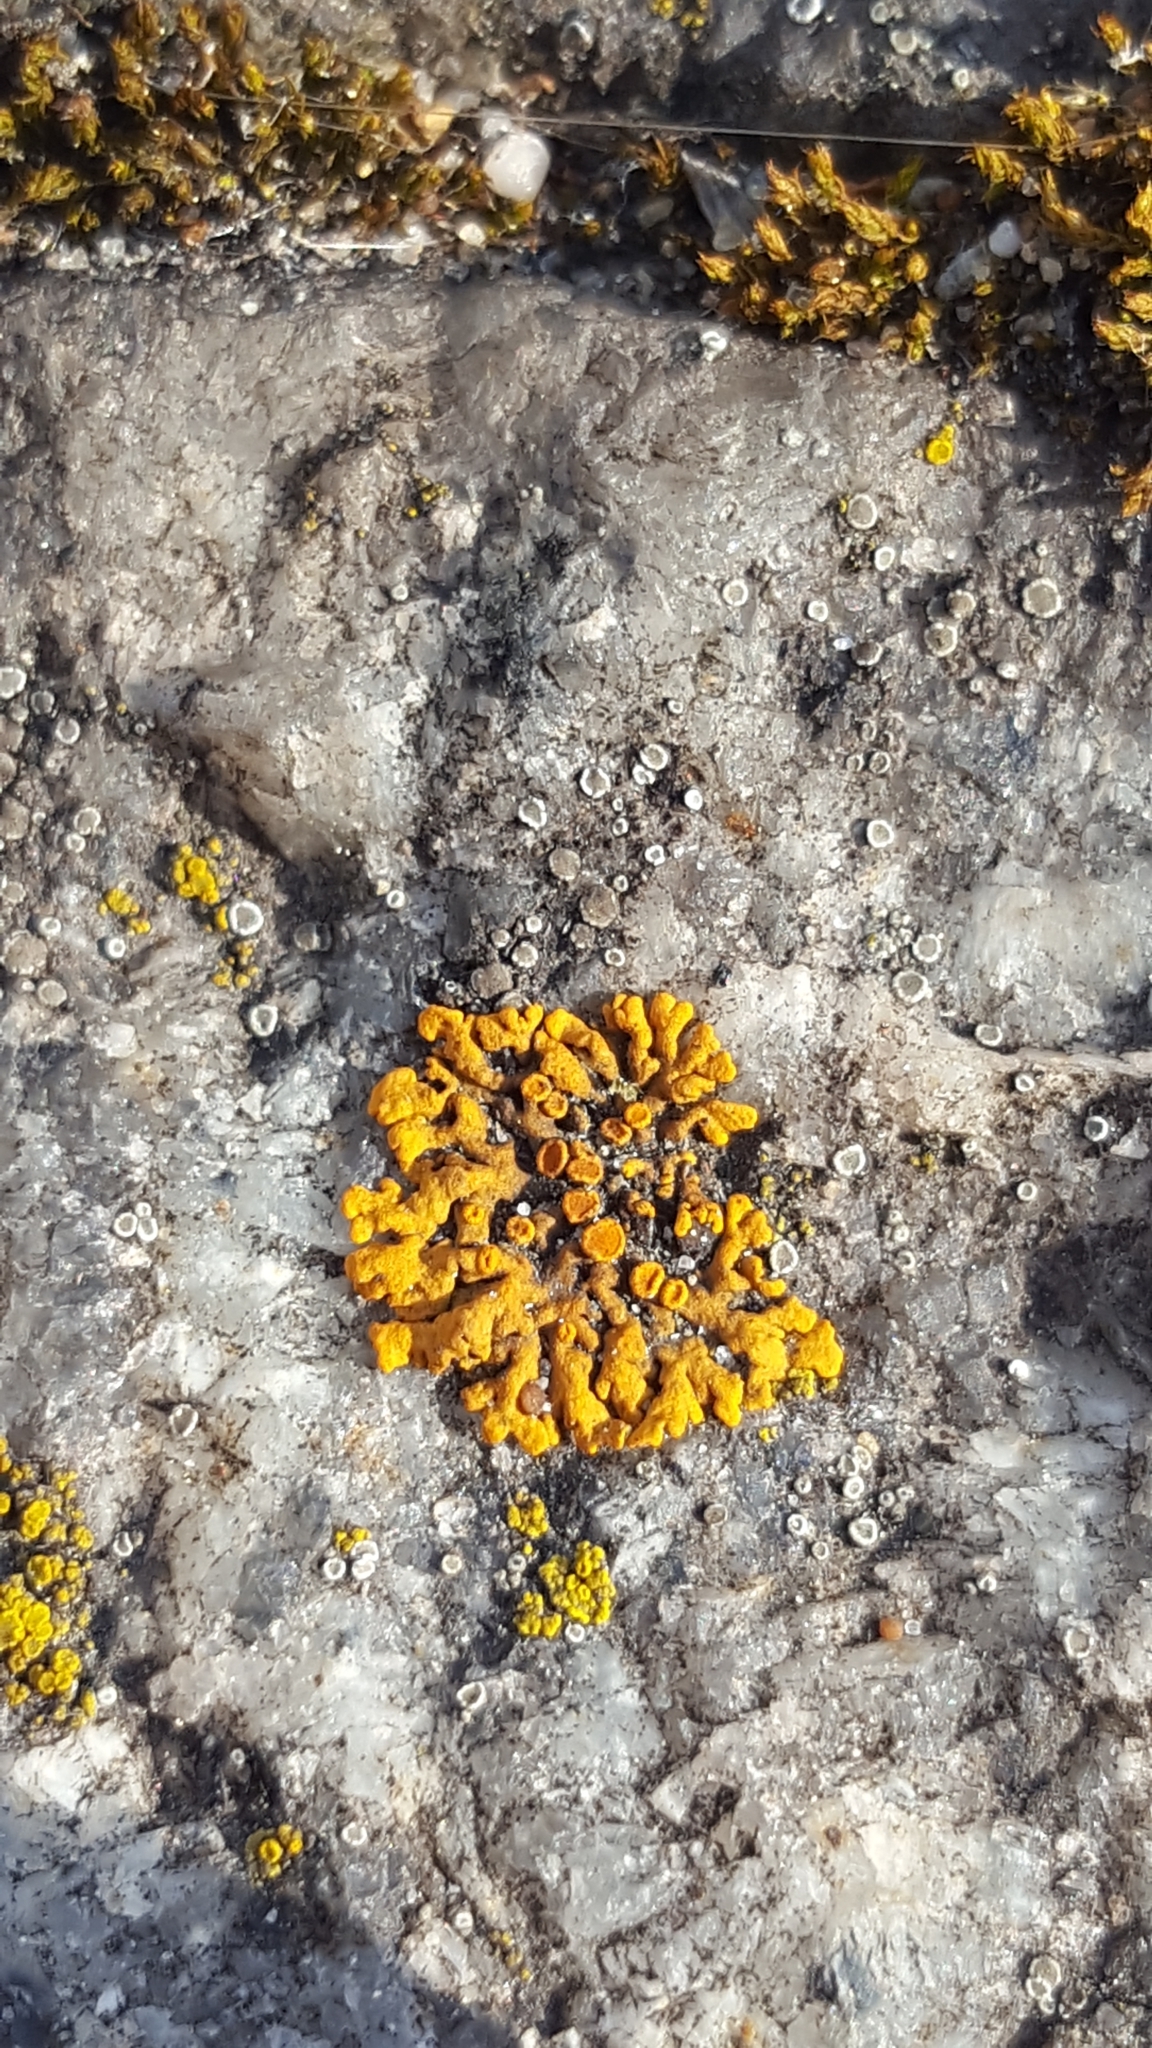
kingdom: Fungi
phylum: Ascomycota
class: Lecanoromycetes
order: Teloschistales
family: Teloschistaceae
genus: Xanthoria
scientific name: Xanthoria elegans
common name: Elegant sunburst lichen
